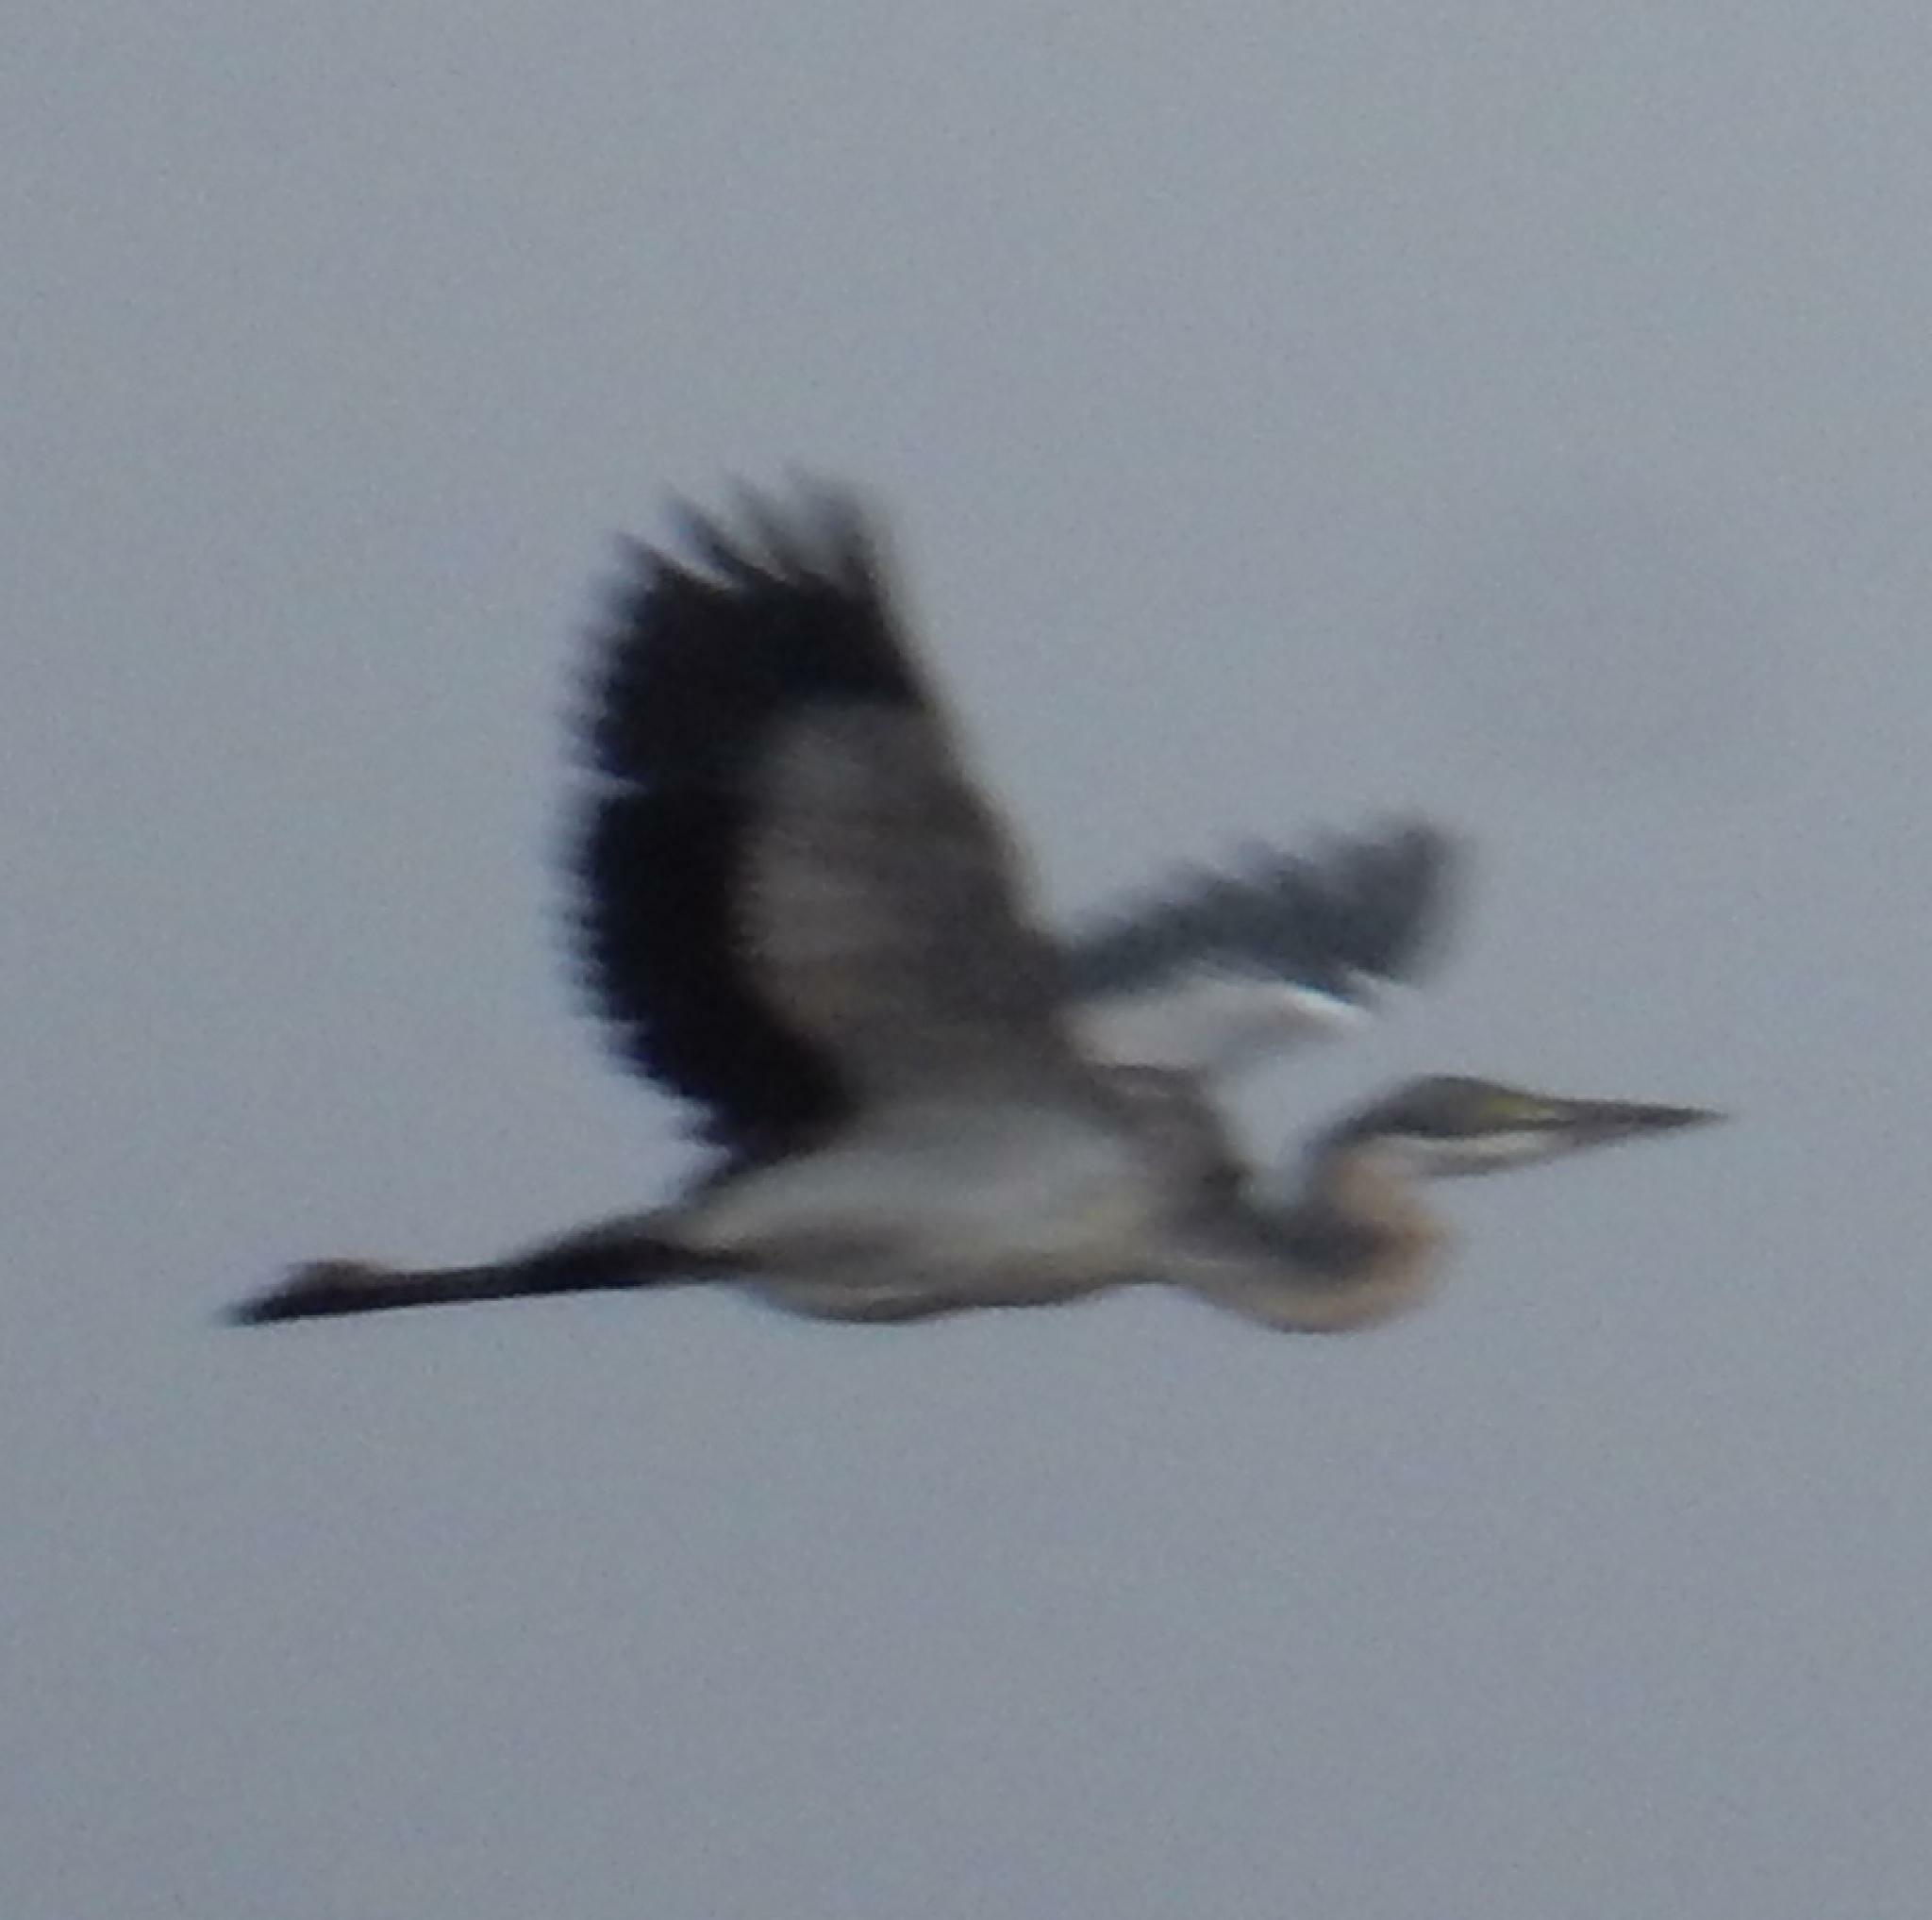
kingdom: Animalia
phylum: Chordata
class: Aves
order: Pelecaniformes
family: Ardeidae
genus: Ardea
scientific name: Ardea melanocephala
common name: Black-headed heron
